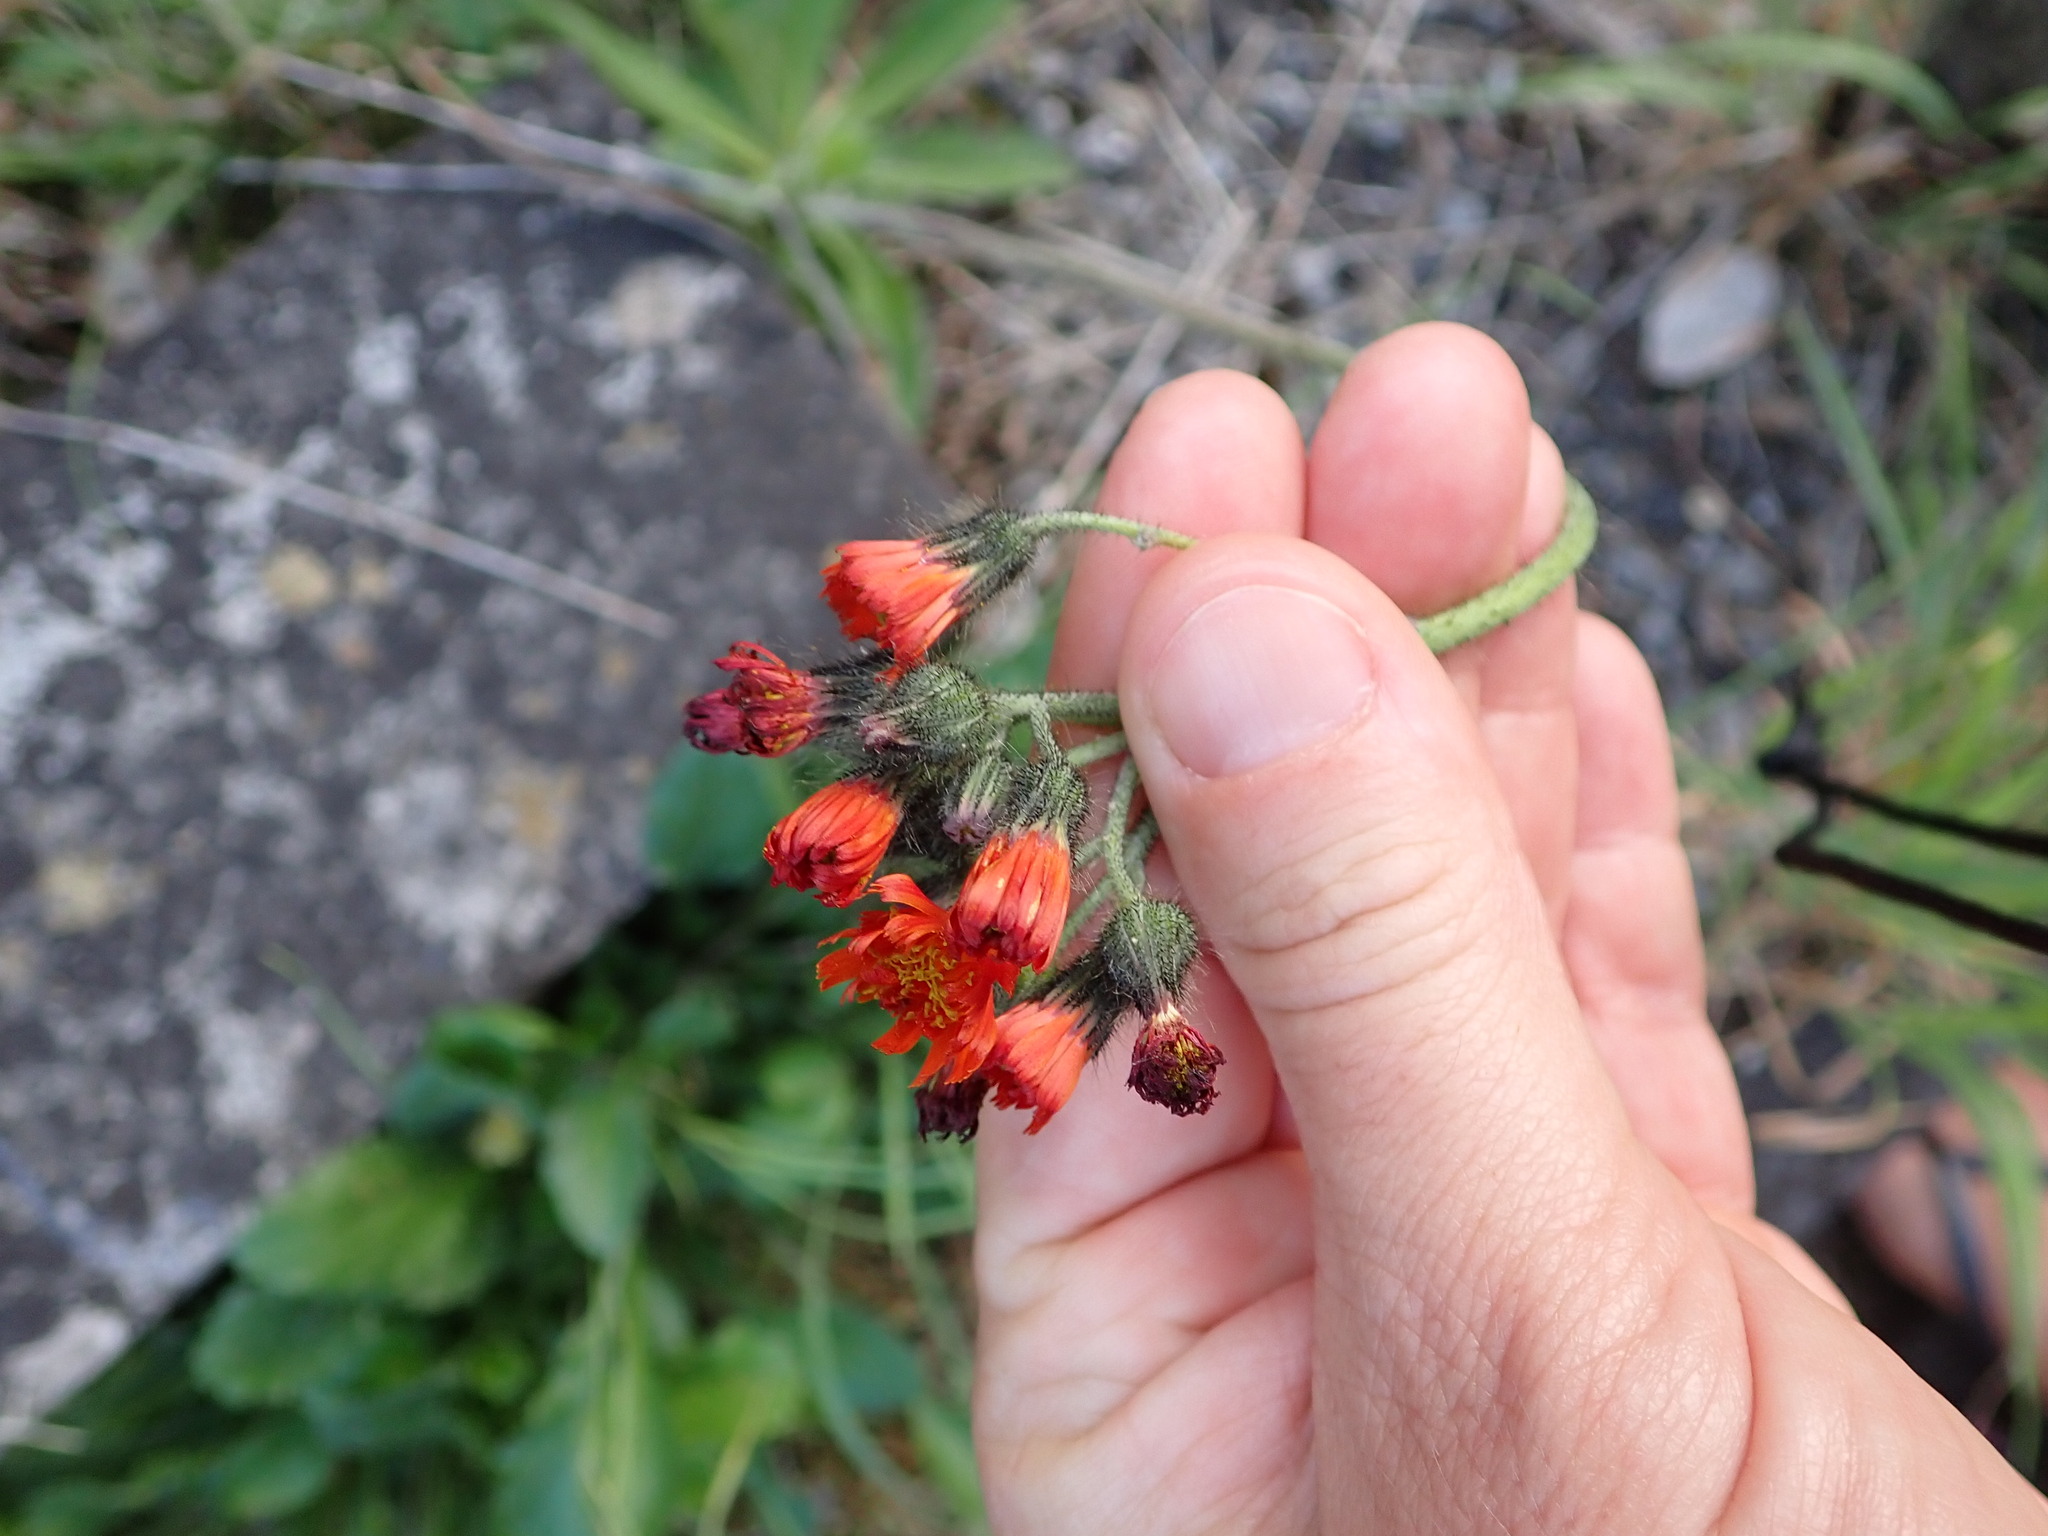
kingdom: Plantae
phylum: Tracheophyta
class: Magnoliopsida
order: Asterales
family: Asteraceae
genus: Pilosella
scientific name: Pilosella aurantiaca
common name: Fox-and-cubs
